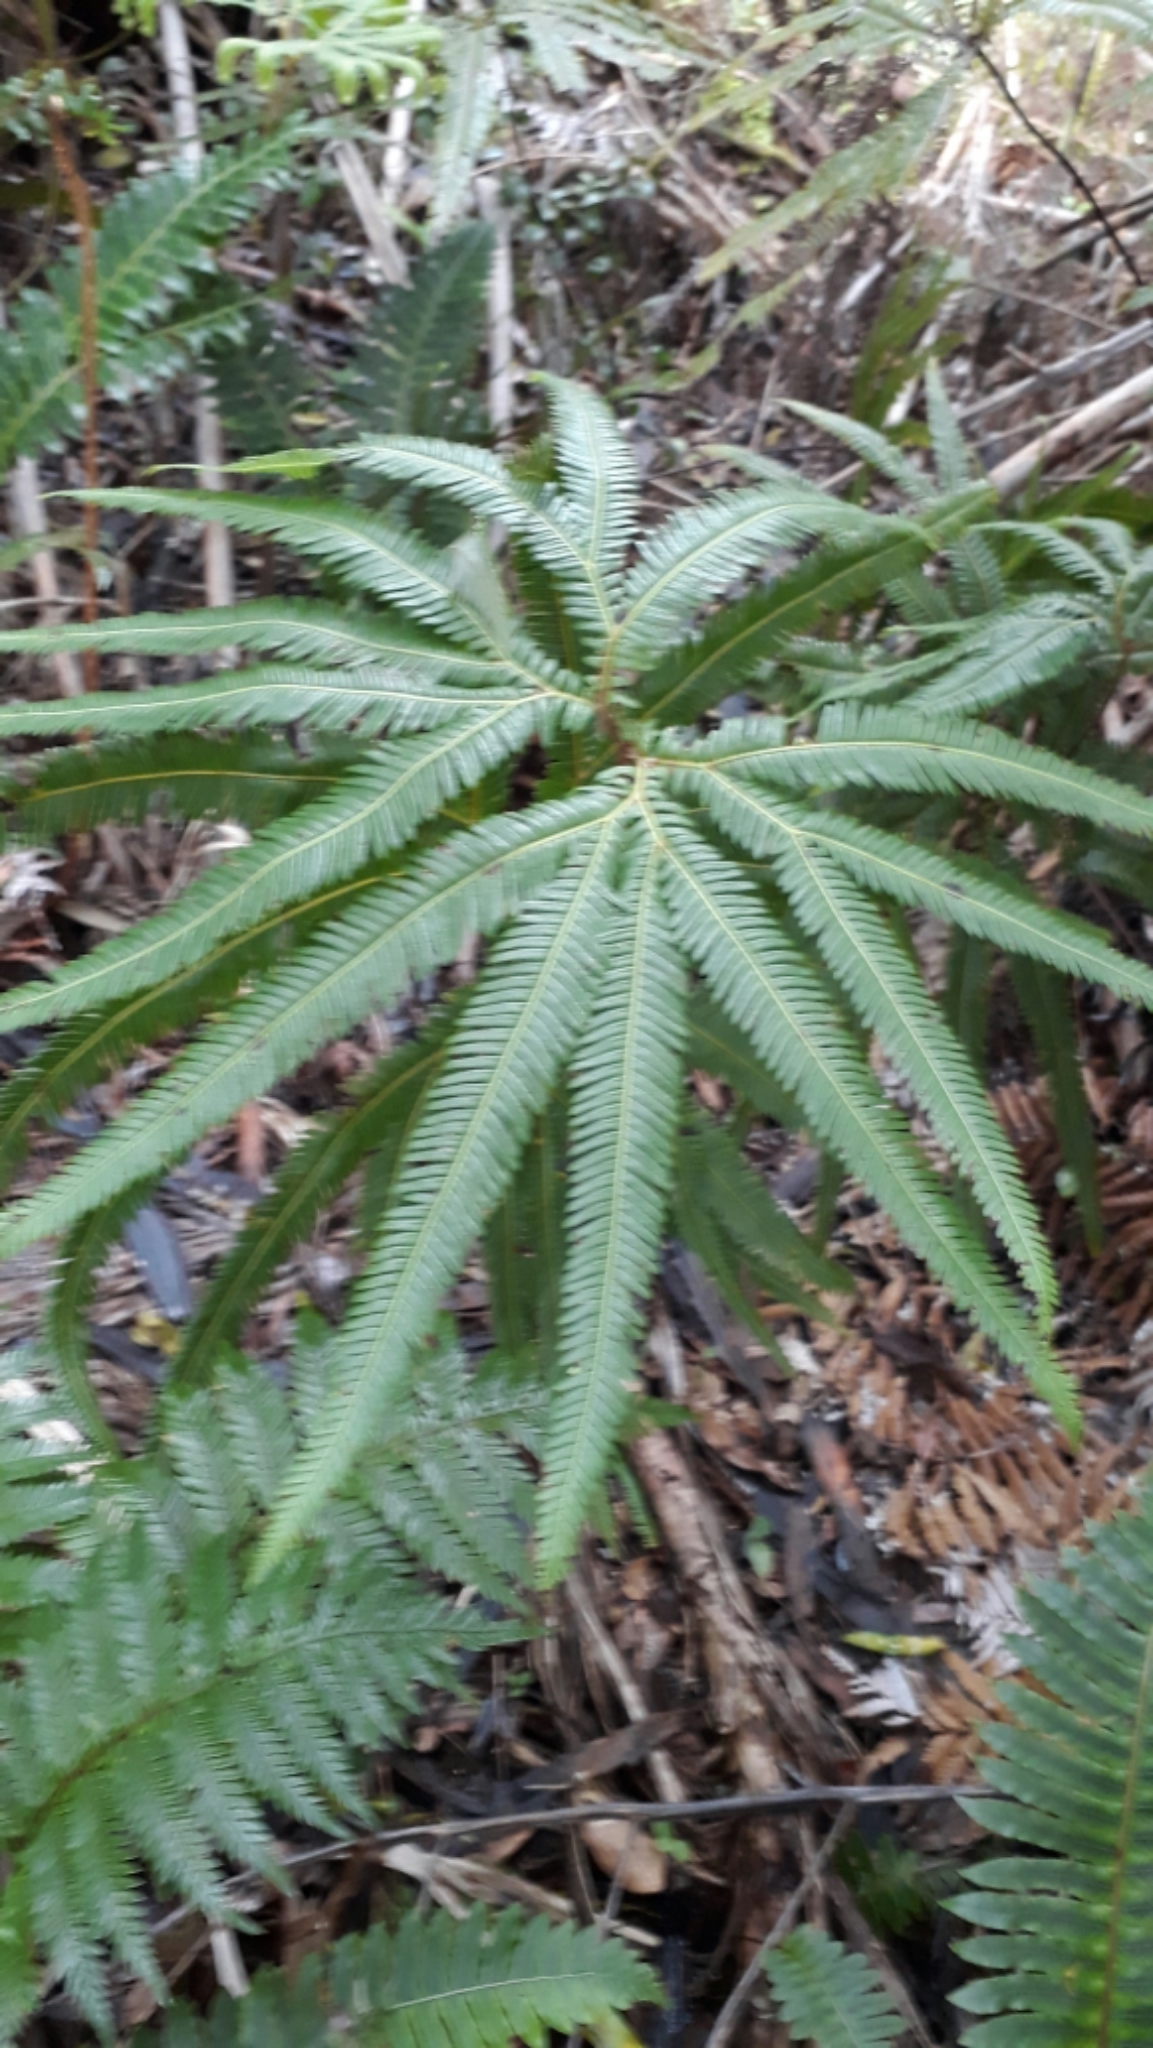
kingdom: Plantae
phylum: Tracheophyta
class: Polypodiopsida
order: Gleicheniales
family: Gleicheniaceae
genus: Sticherus
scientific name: Sticherus cunninghamii
